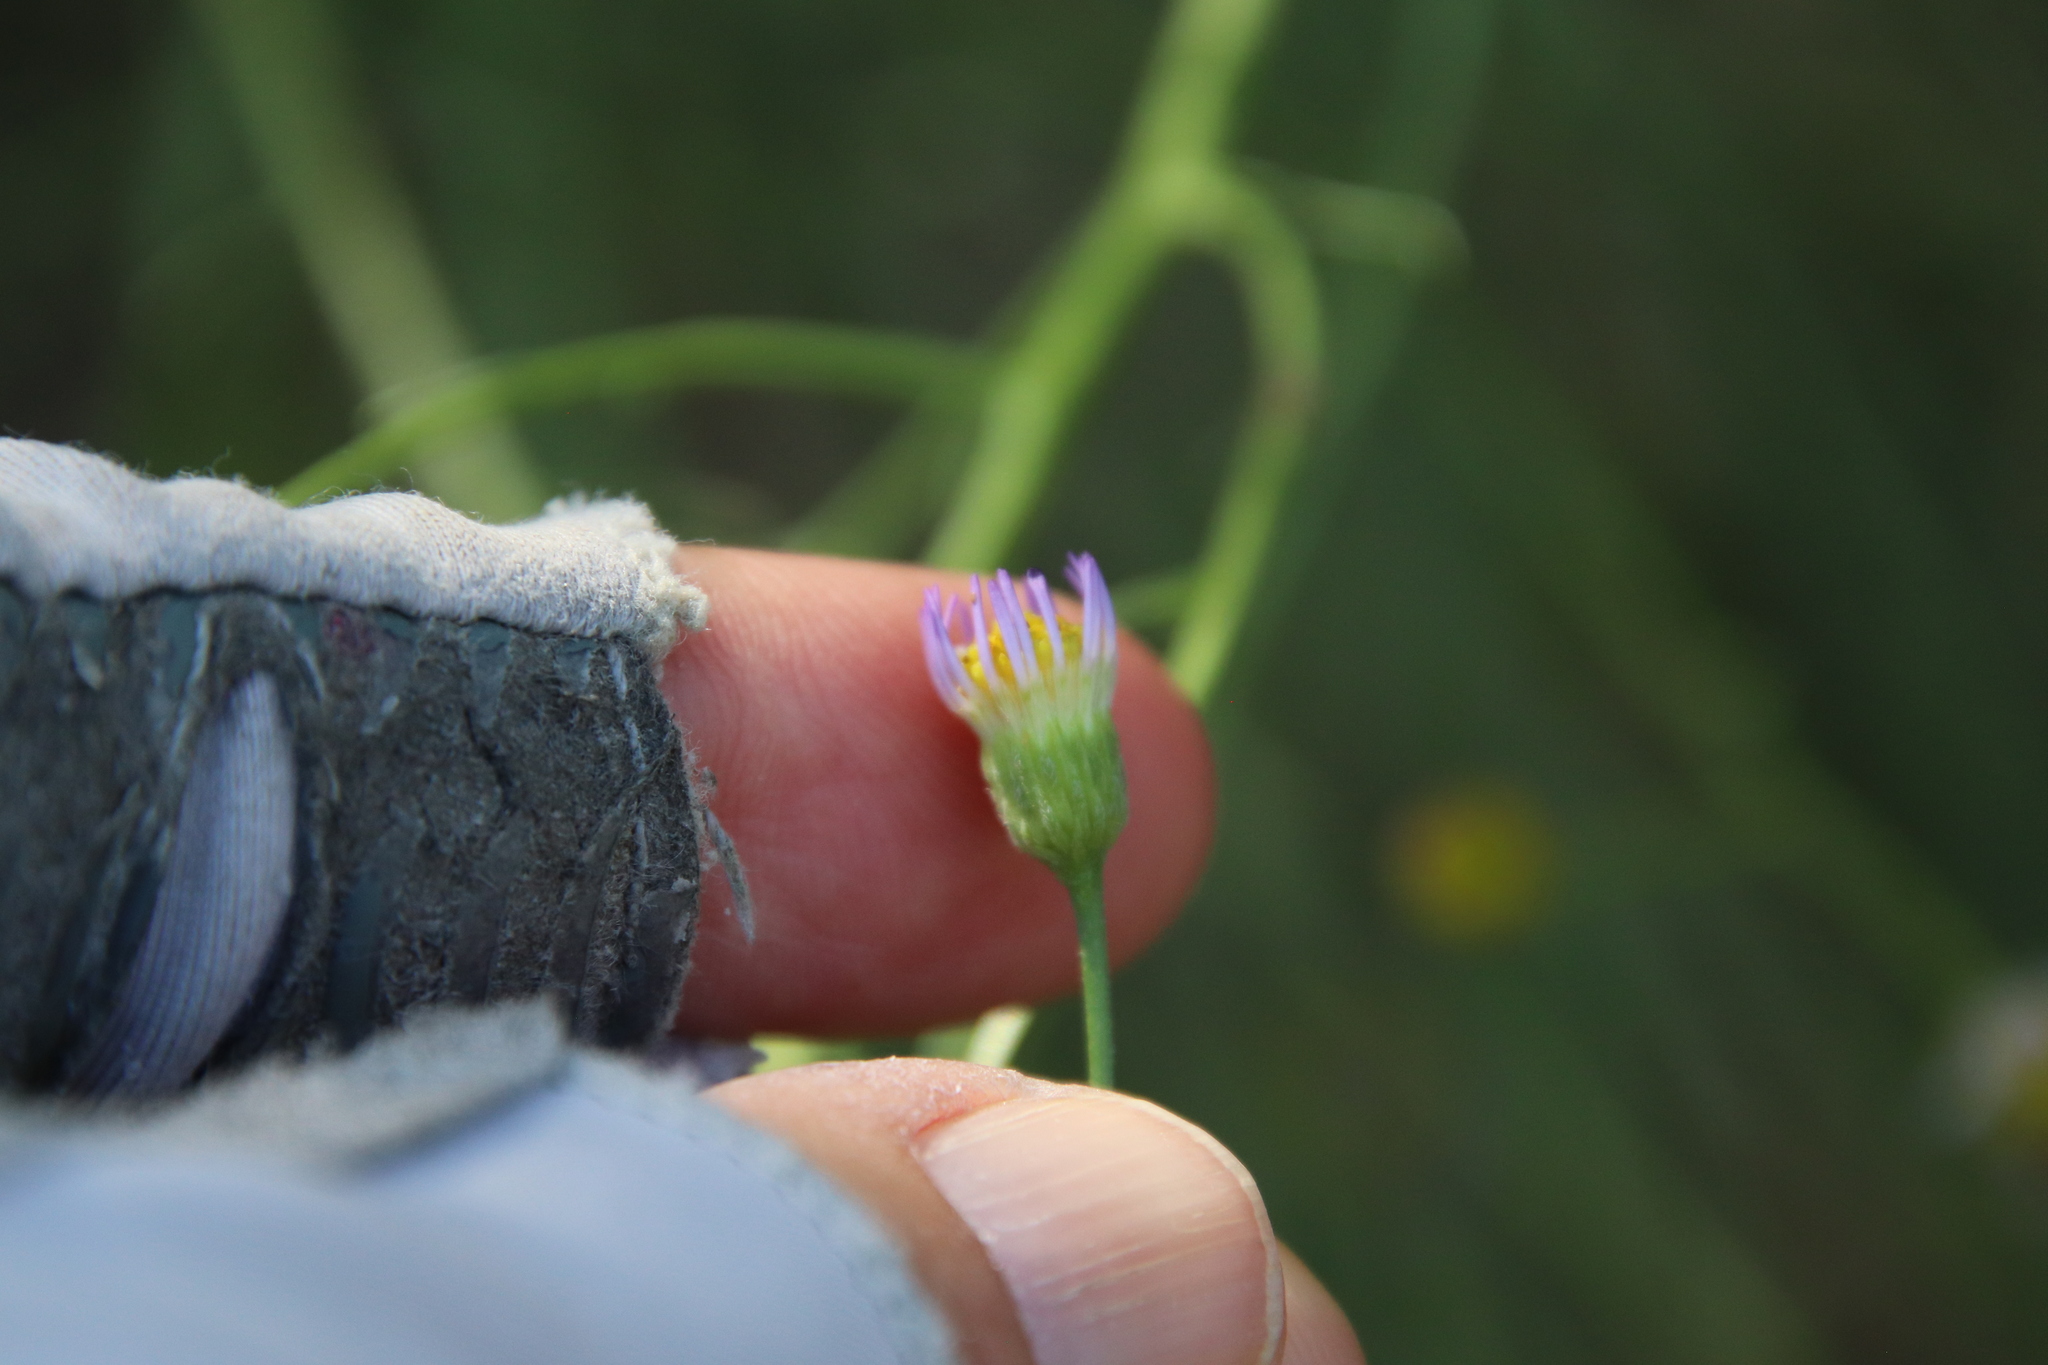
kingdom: Plantae
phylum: Tracheophyta
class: Magnoliopsida
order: Asterales
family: Asteraceae
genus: Erigeron
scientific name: Erigeron foliosus
